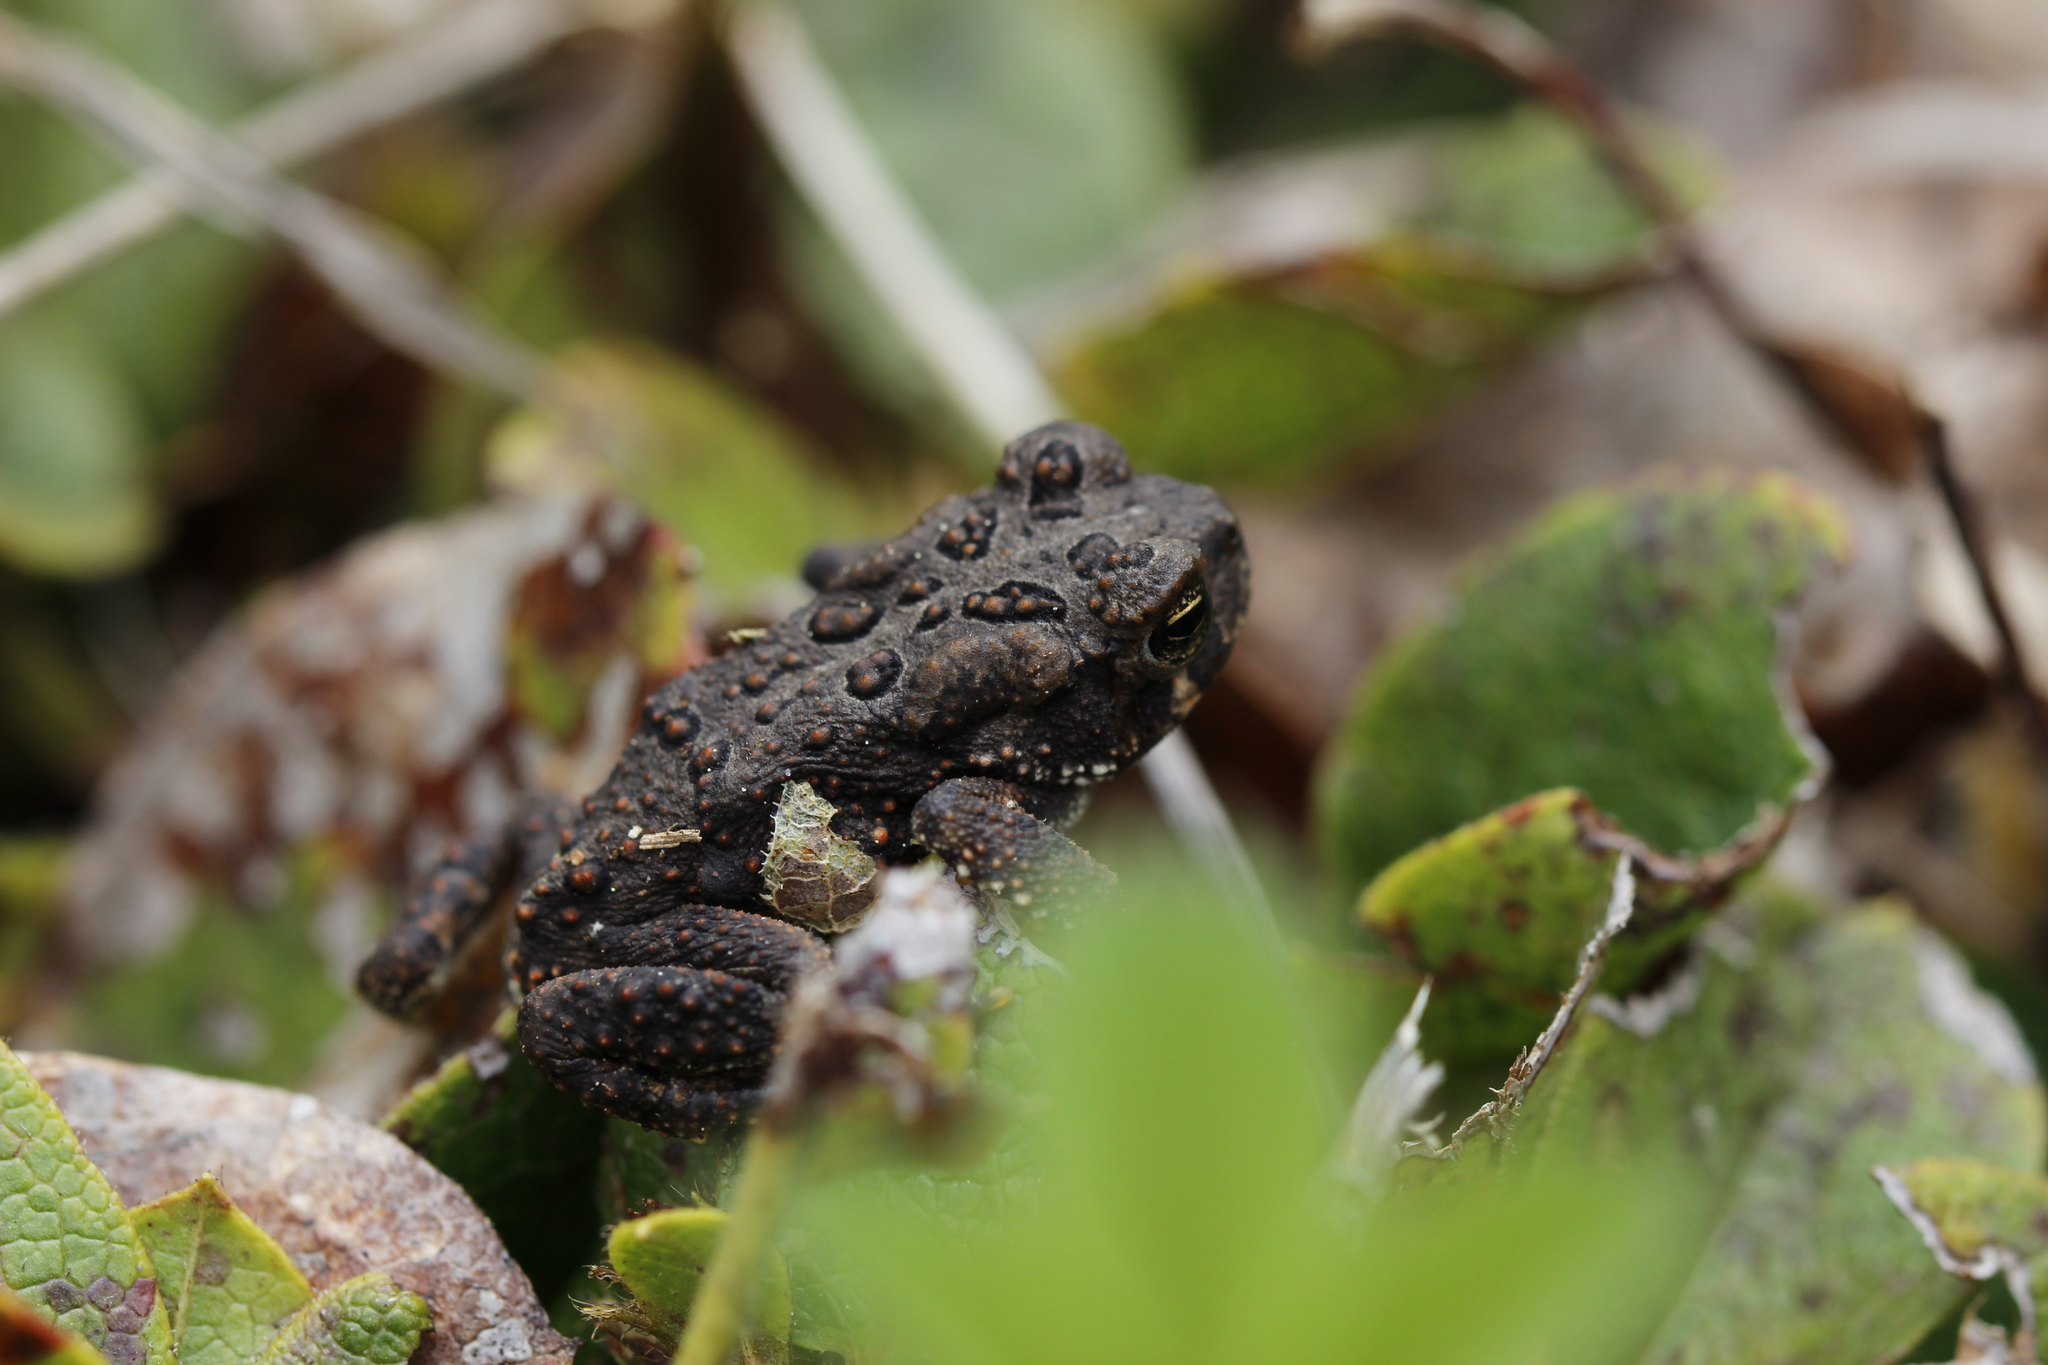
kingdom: Animalia
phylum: Chordata
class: Amphibia
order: Anura
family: Bufonidae
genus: Anaxyrus
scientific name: Anaxyrus americanus
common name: American toad
